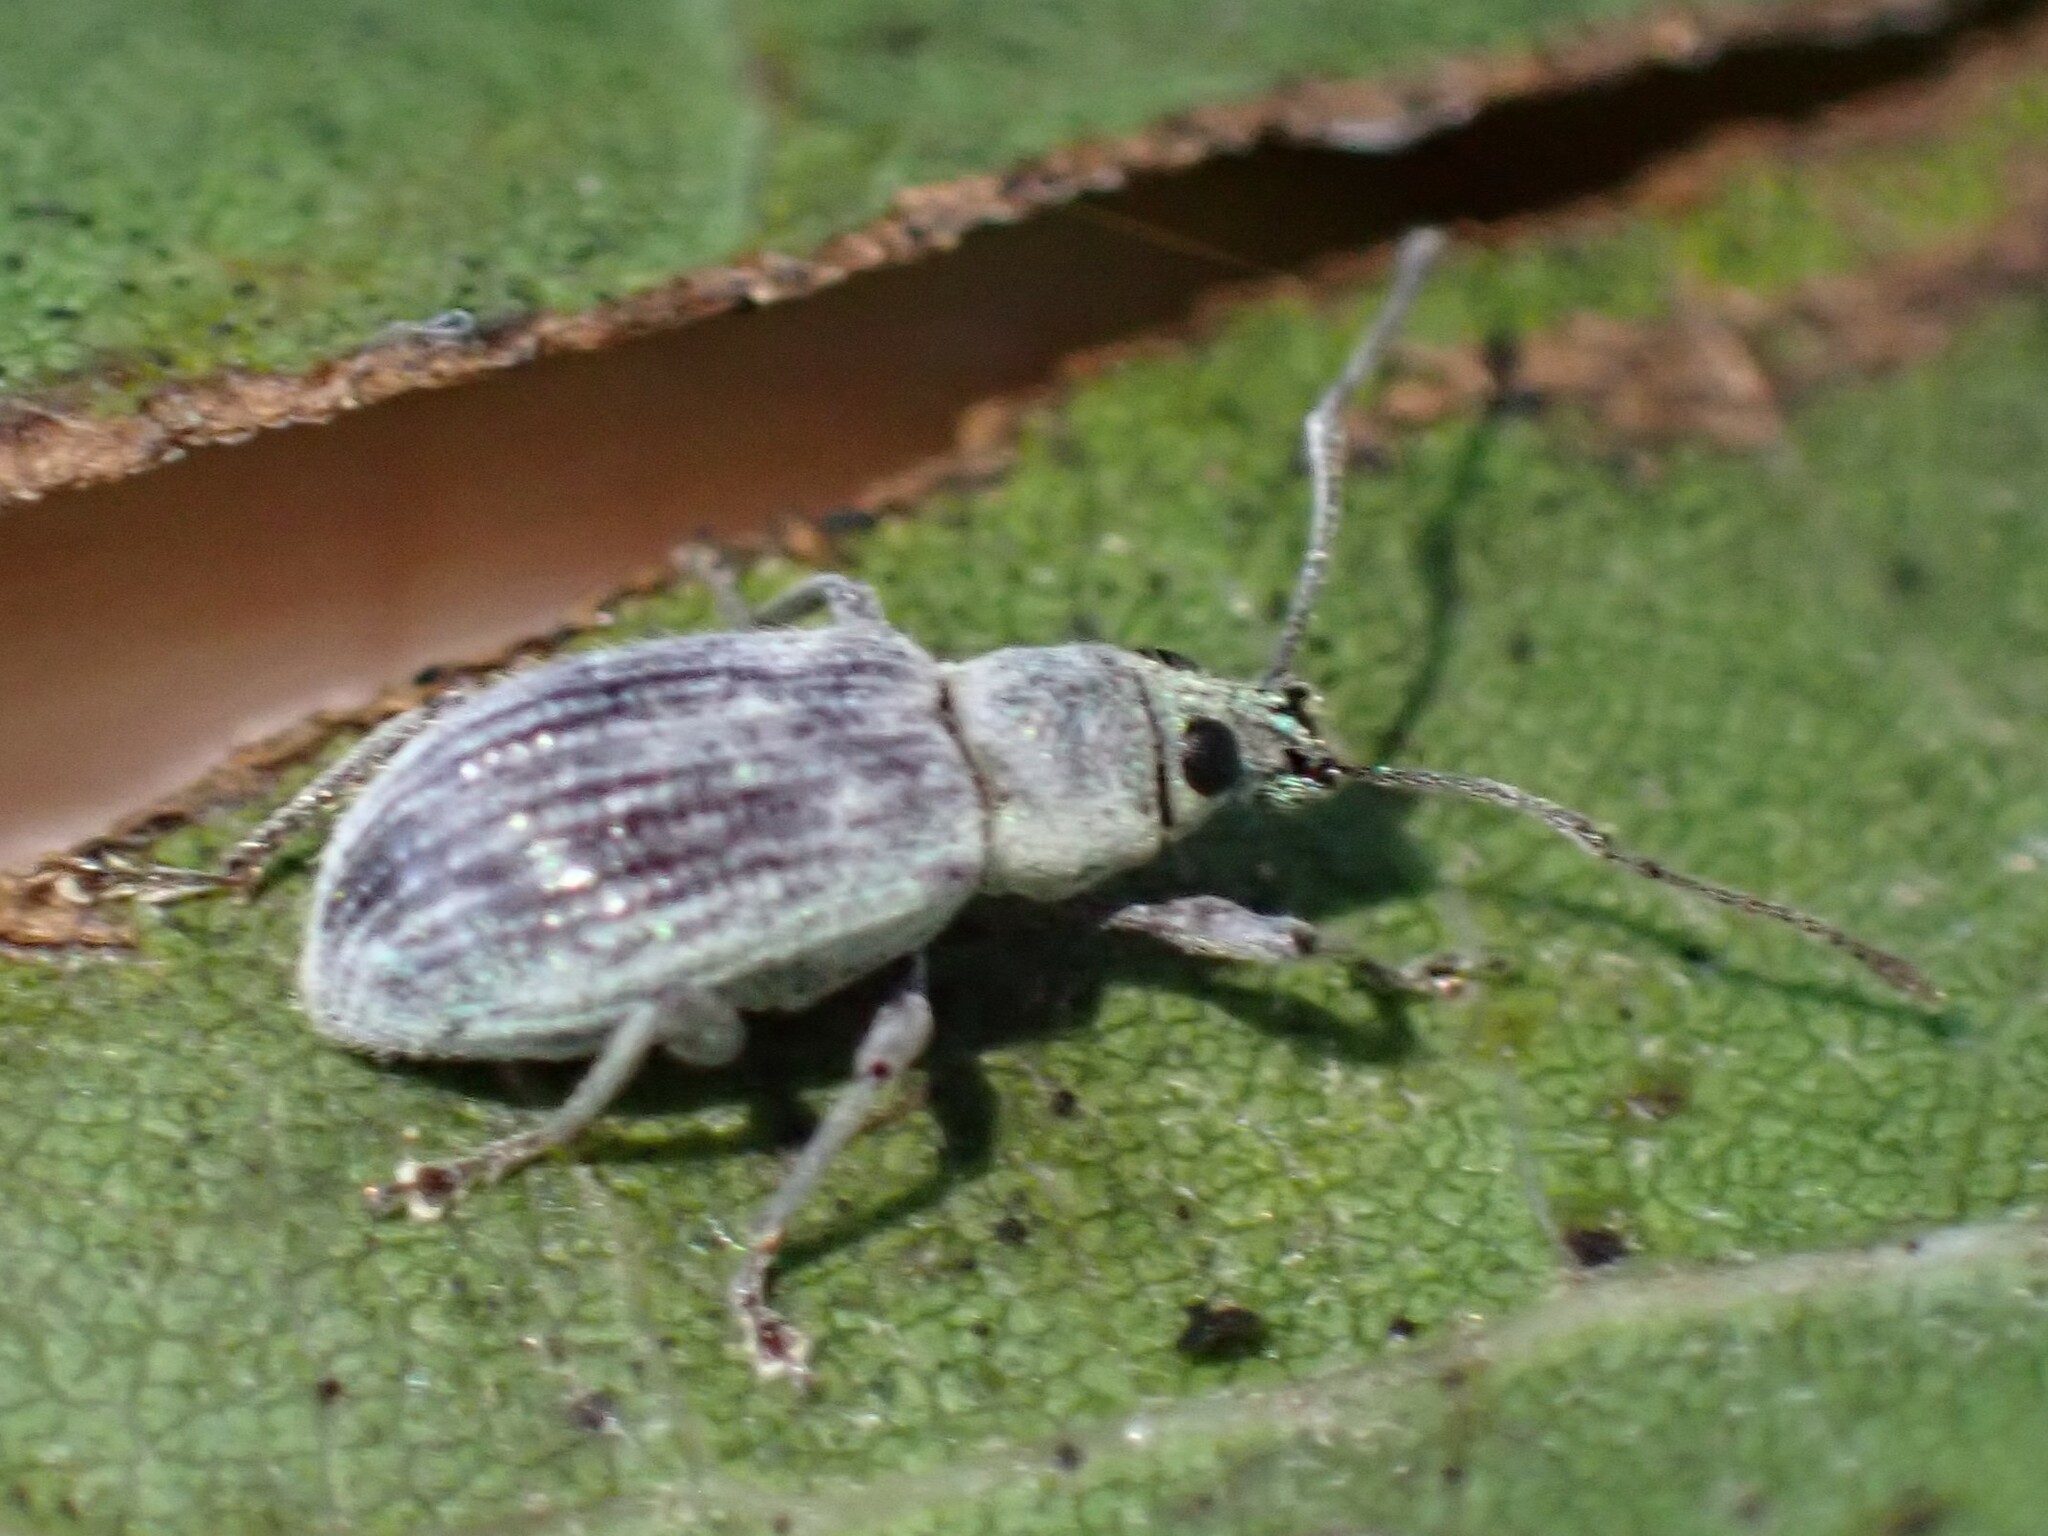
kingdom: Animalia
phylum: Arthropoda
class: Insecta
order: Coleoptera
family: Curculionidae
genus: Cyrtepistomus
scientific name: Cyrtepistomus castaneus
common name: Weevil
